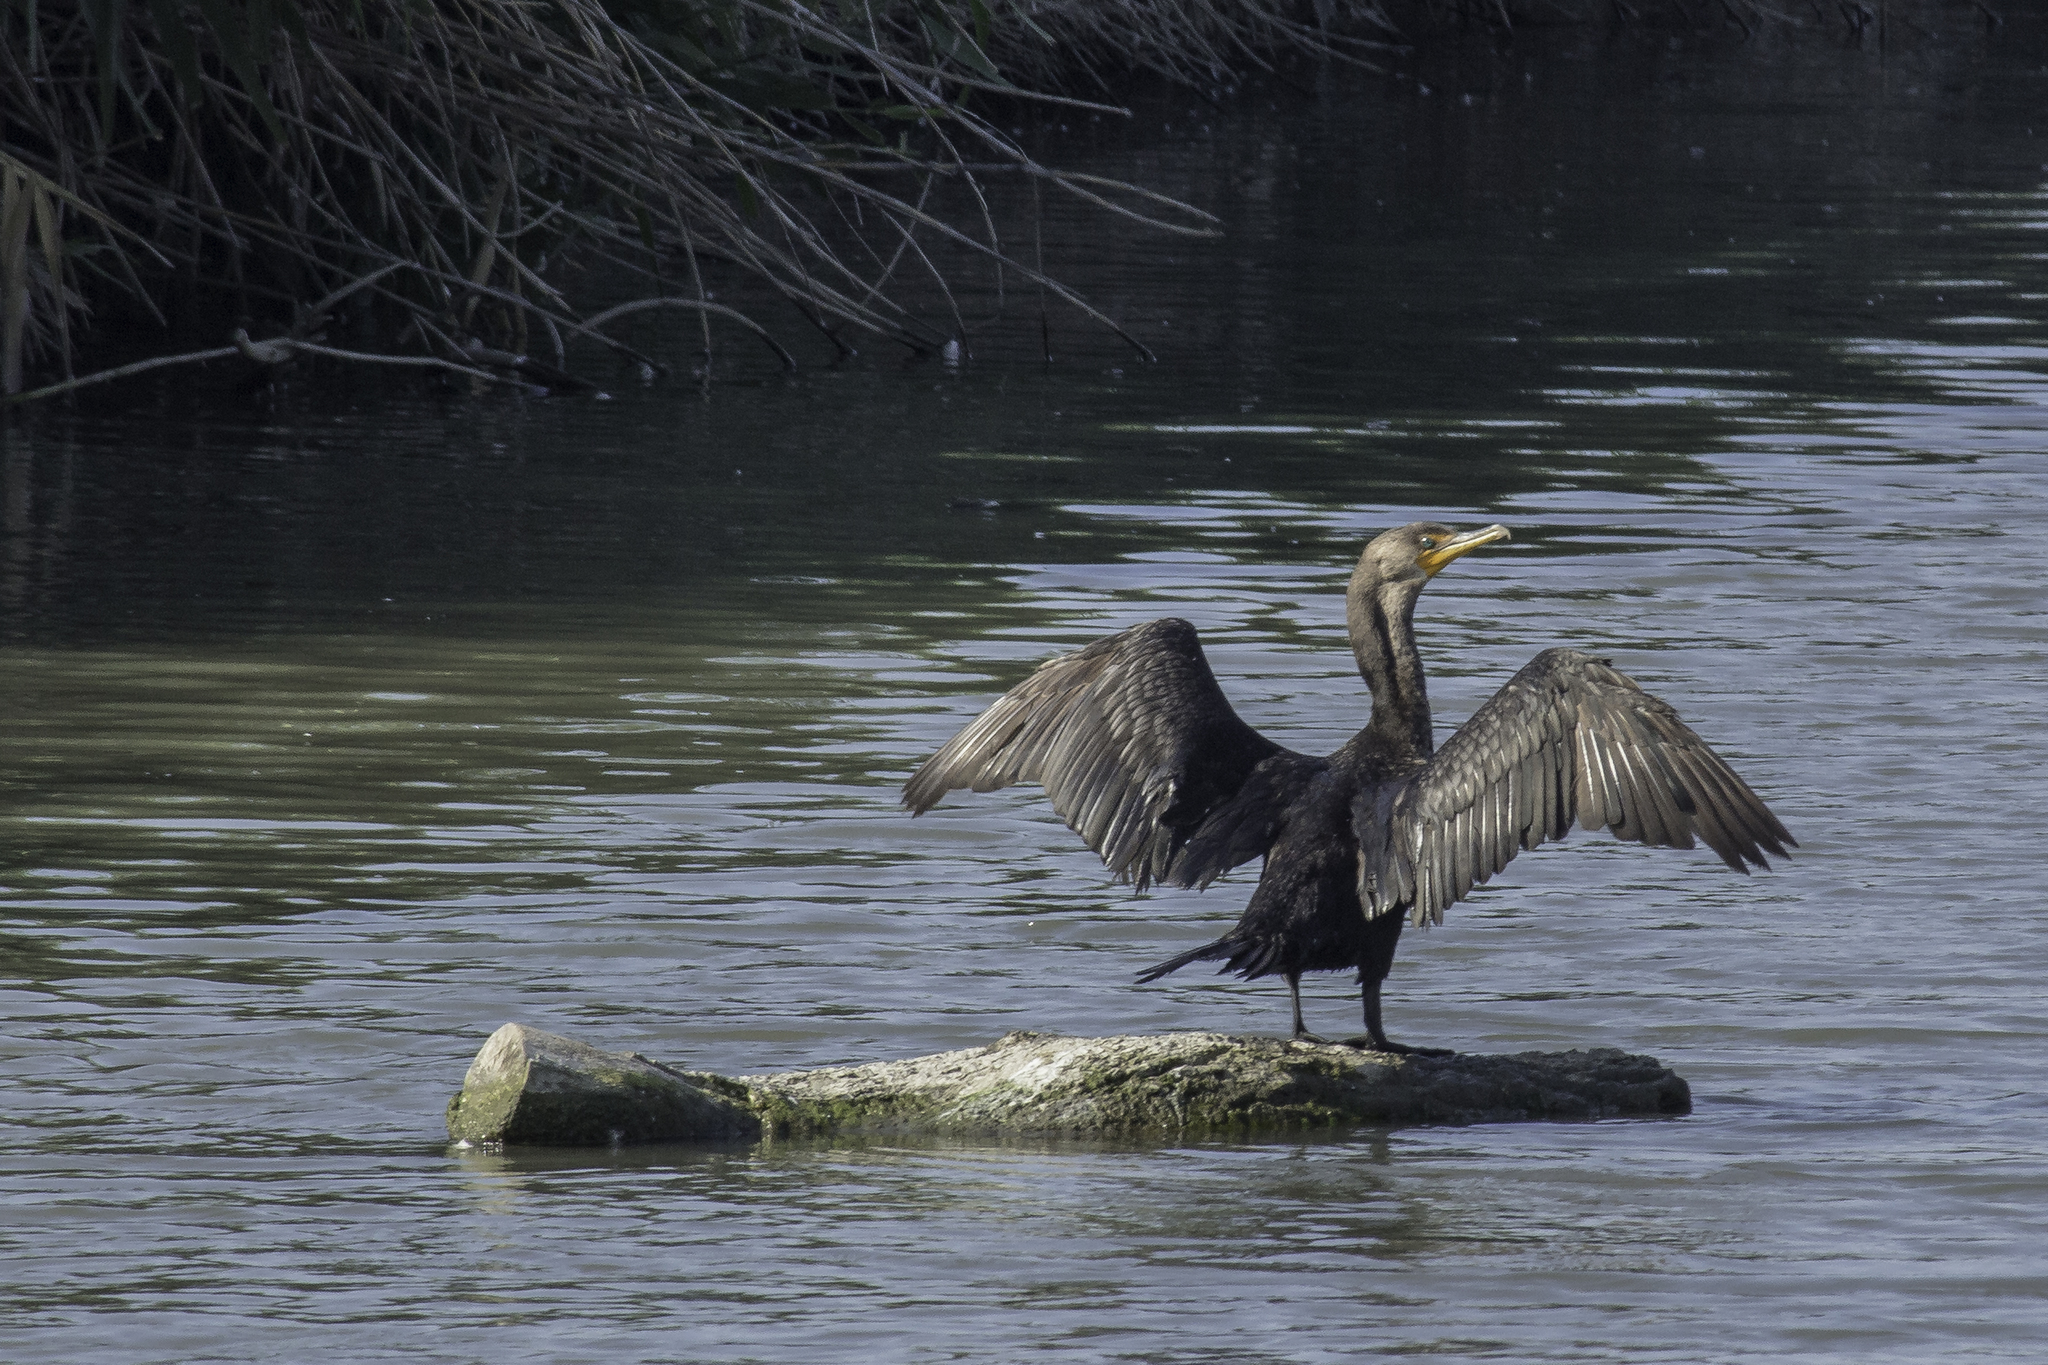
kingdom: Animalia
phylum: Chordata
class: Aves
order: Suliformes
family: Phalacrocoracidae
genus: Phalacrocorax
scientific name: Phalacrocorax auritus
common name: Double-crested cormorant
